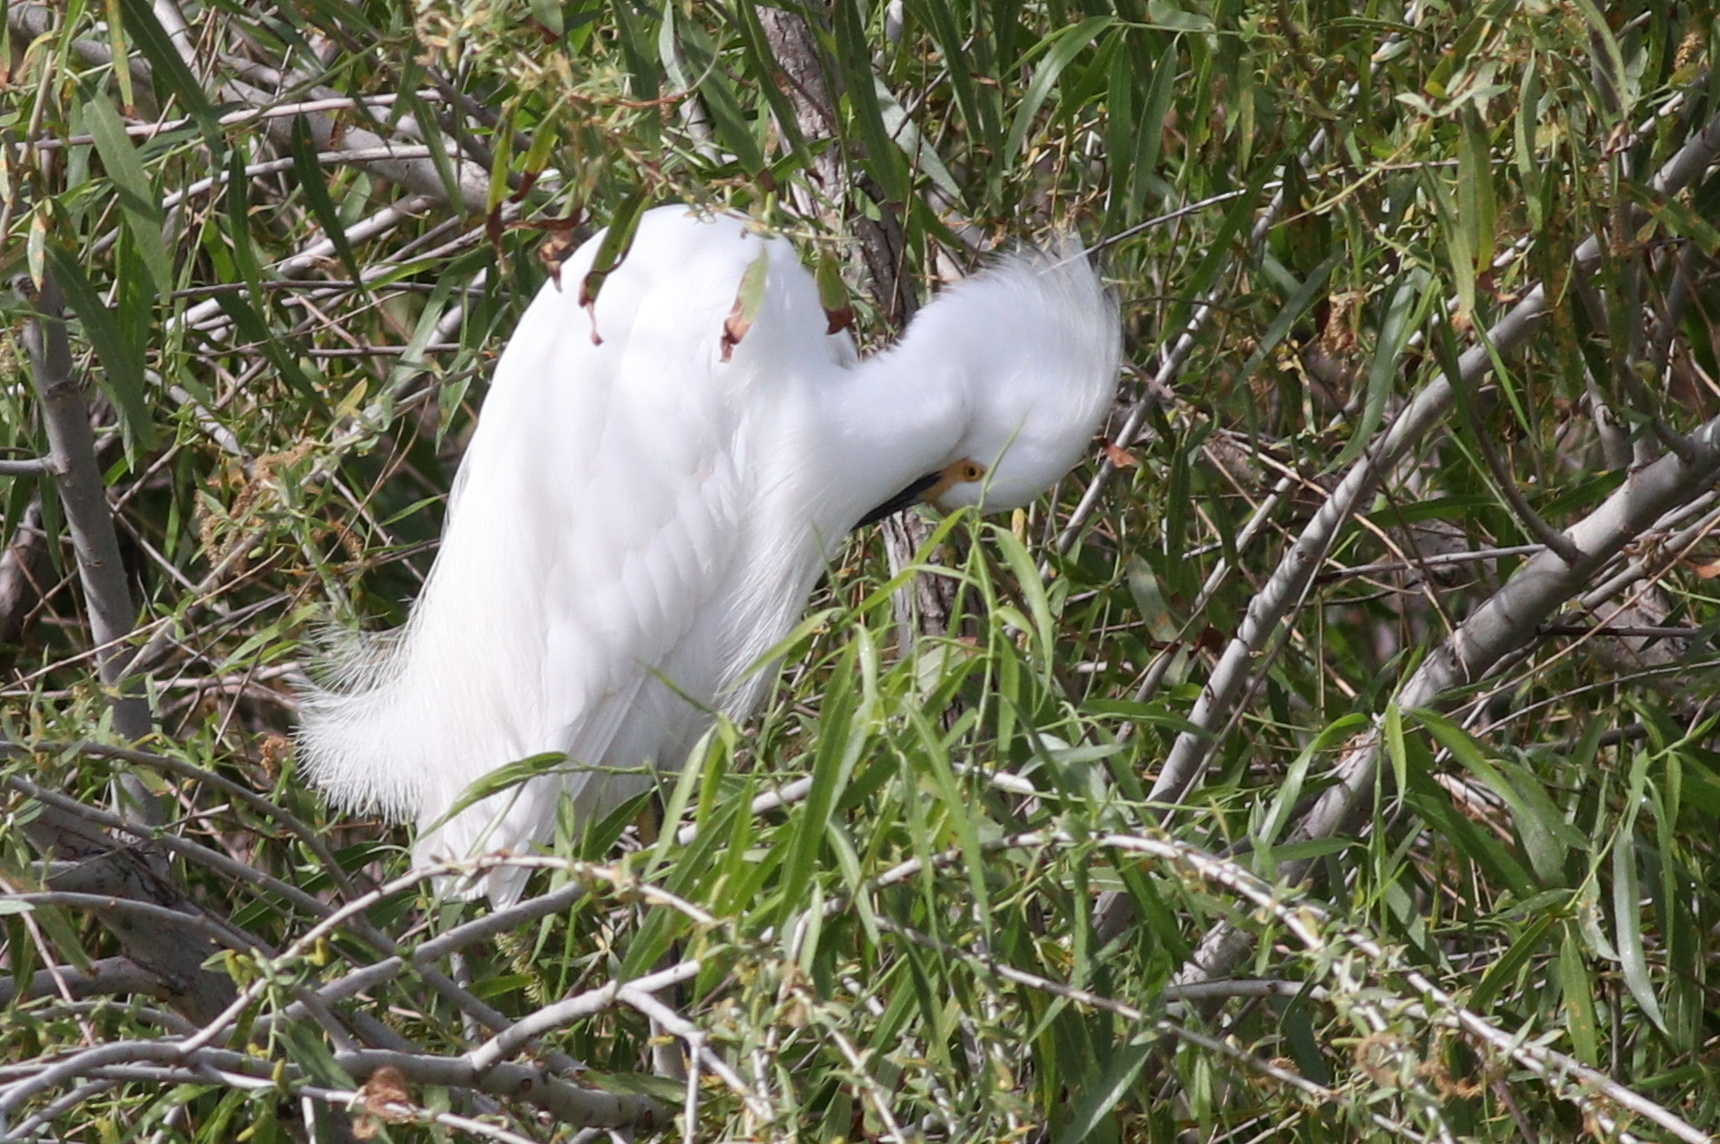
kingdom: Animalia
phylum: Chordata
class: Aves
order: Pelecaniformes
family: Ardeidae
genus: Egretta
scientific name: Egretta thula
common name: Snowy egret
